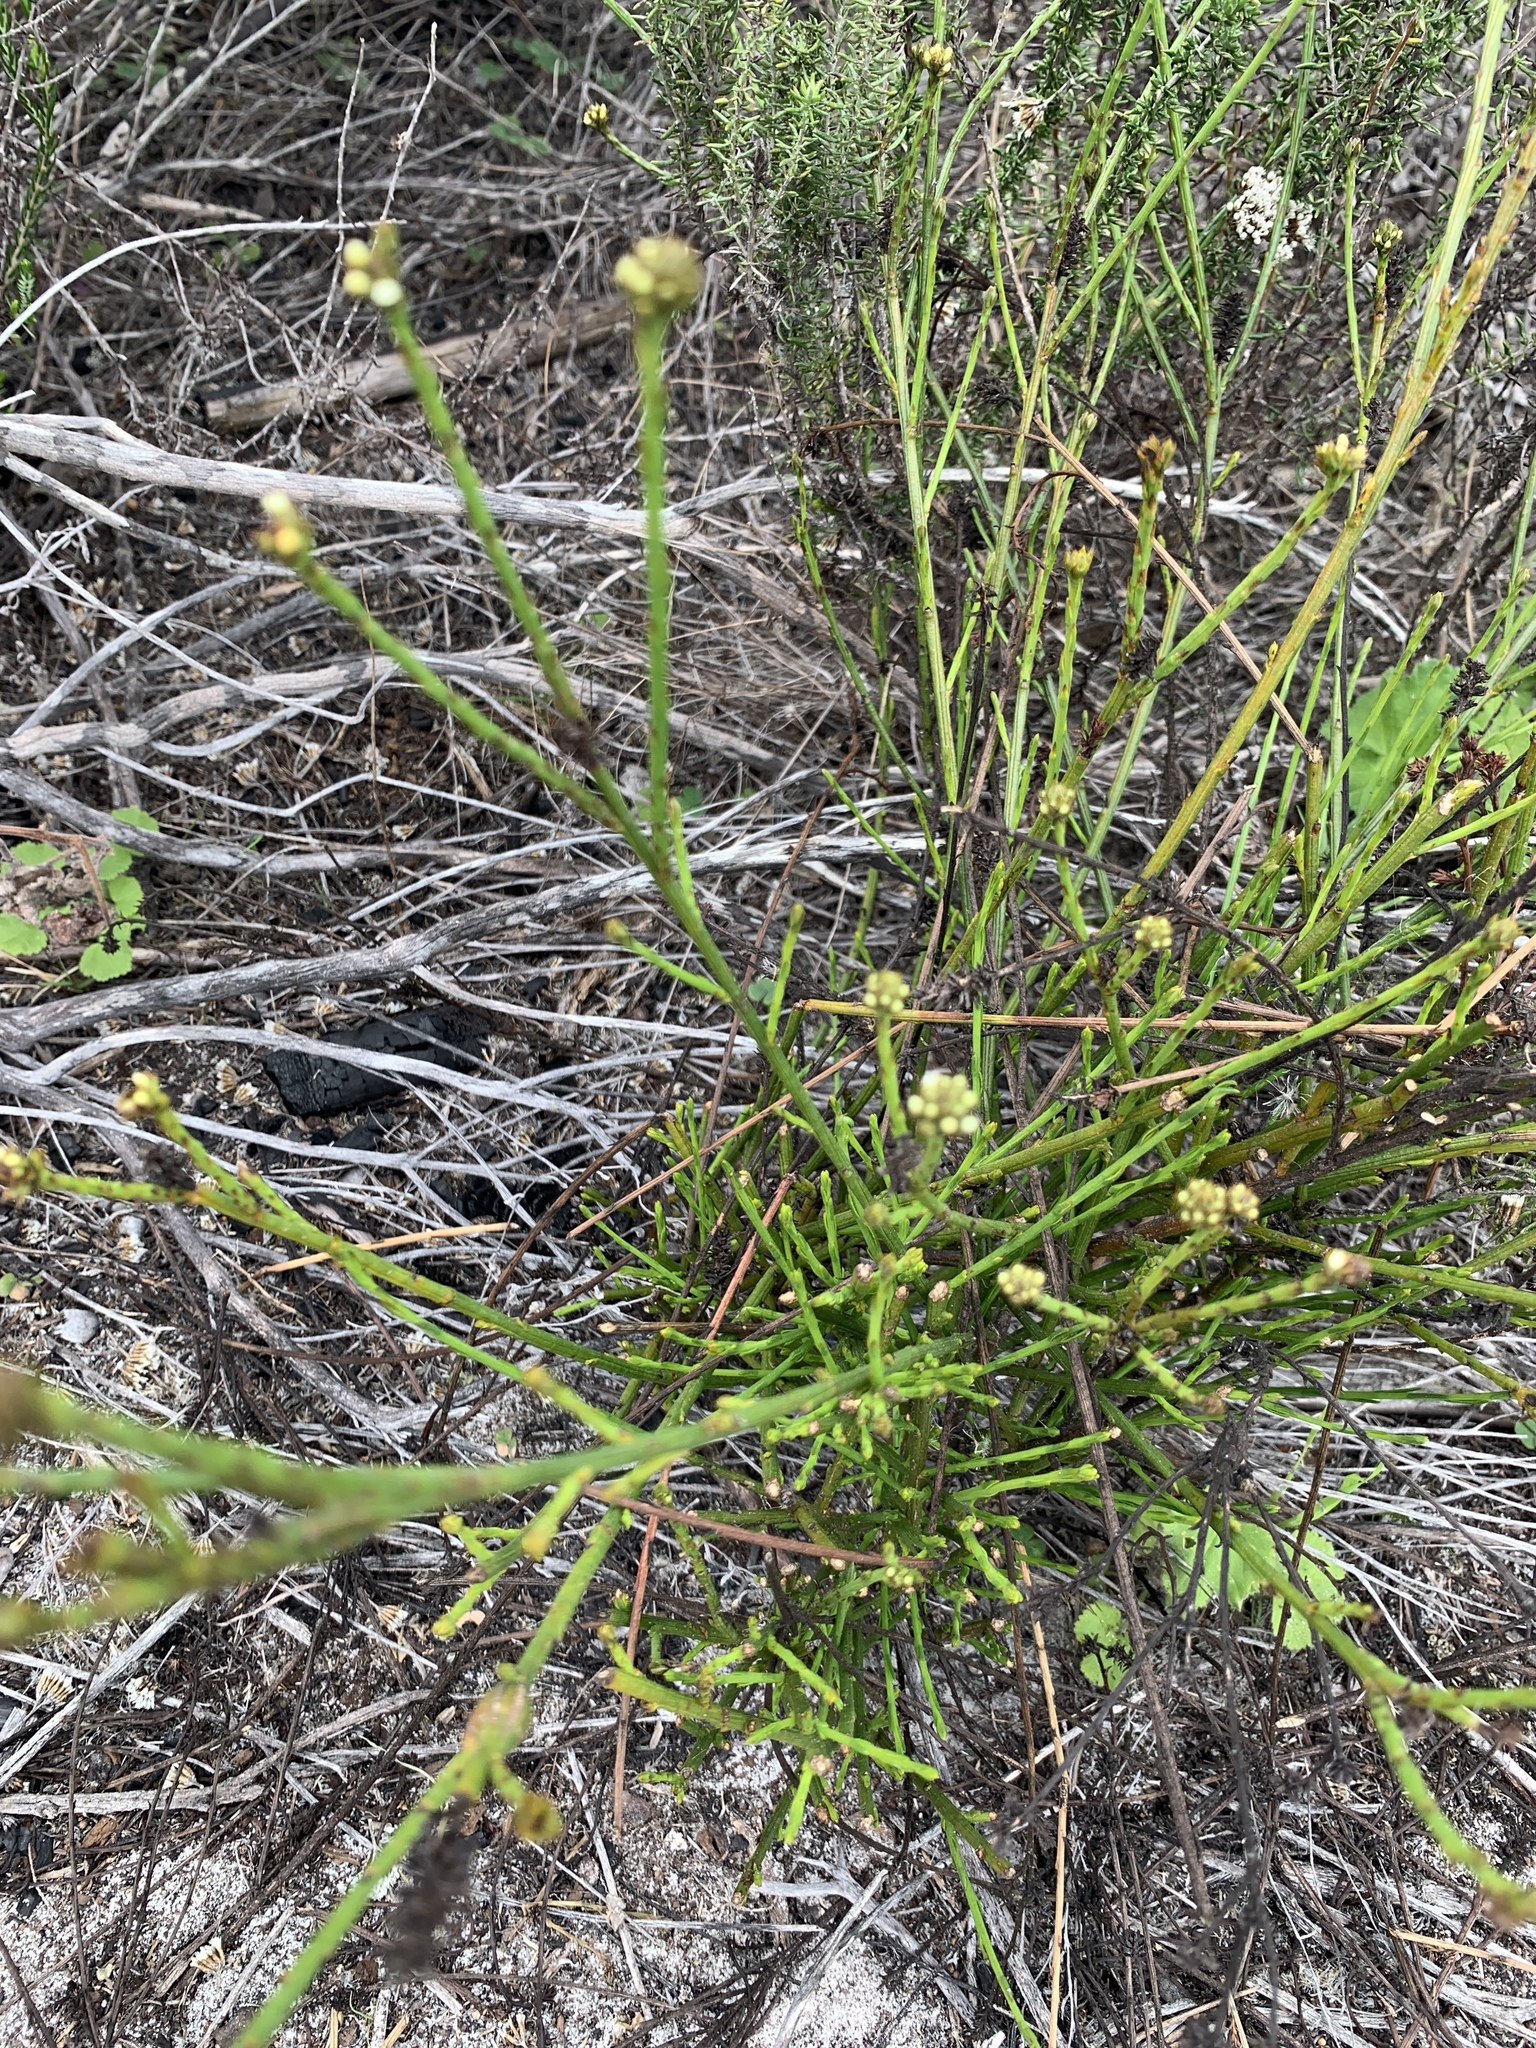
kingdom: Plantae
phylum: Tracheophyta
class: Magnoliopsida
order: Santalales
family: Thesiaceae
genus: Thesium
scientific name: Thesium aggregatum
